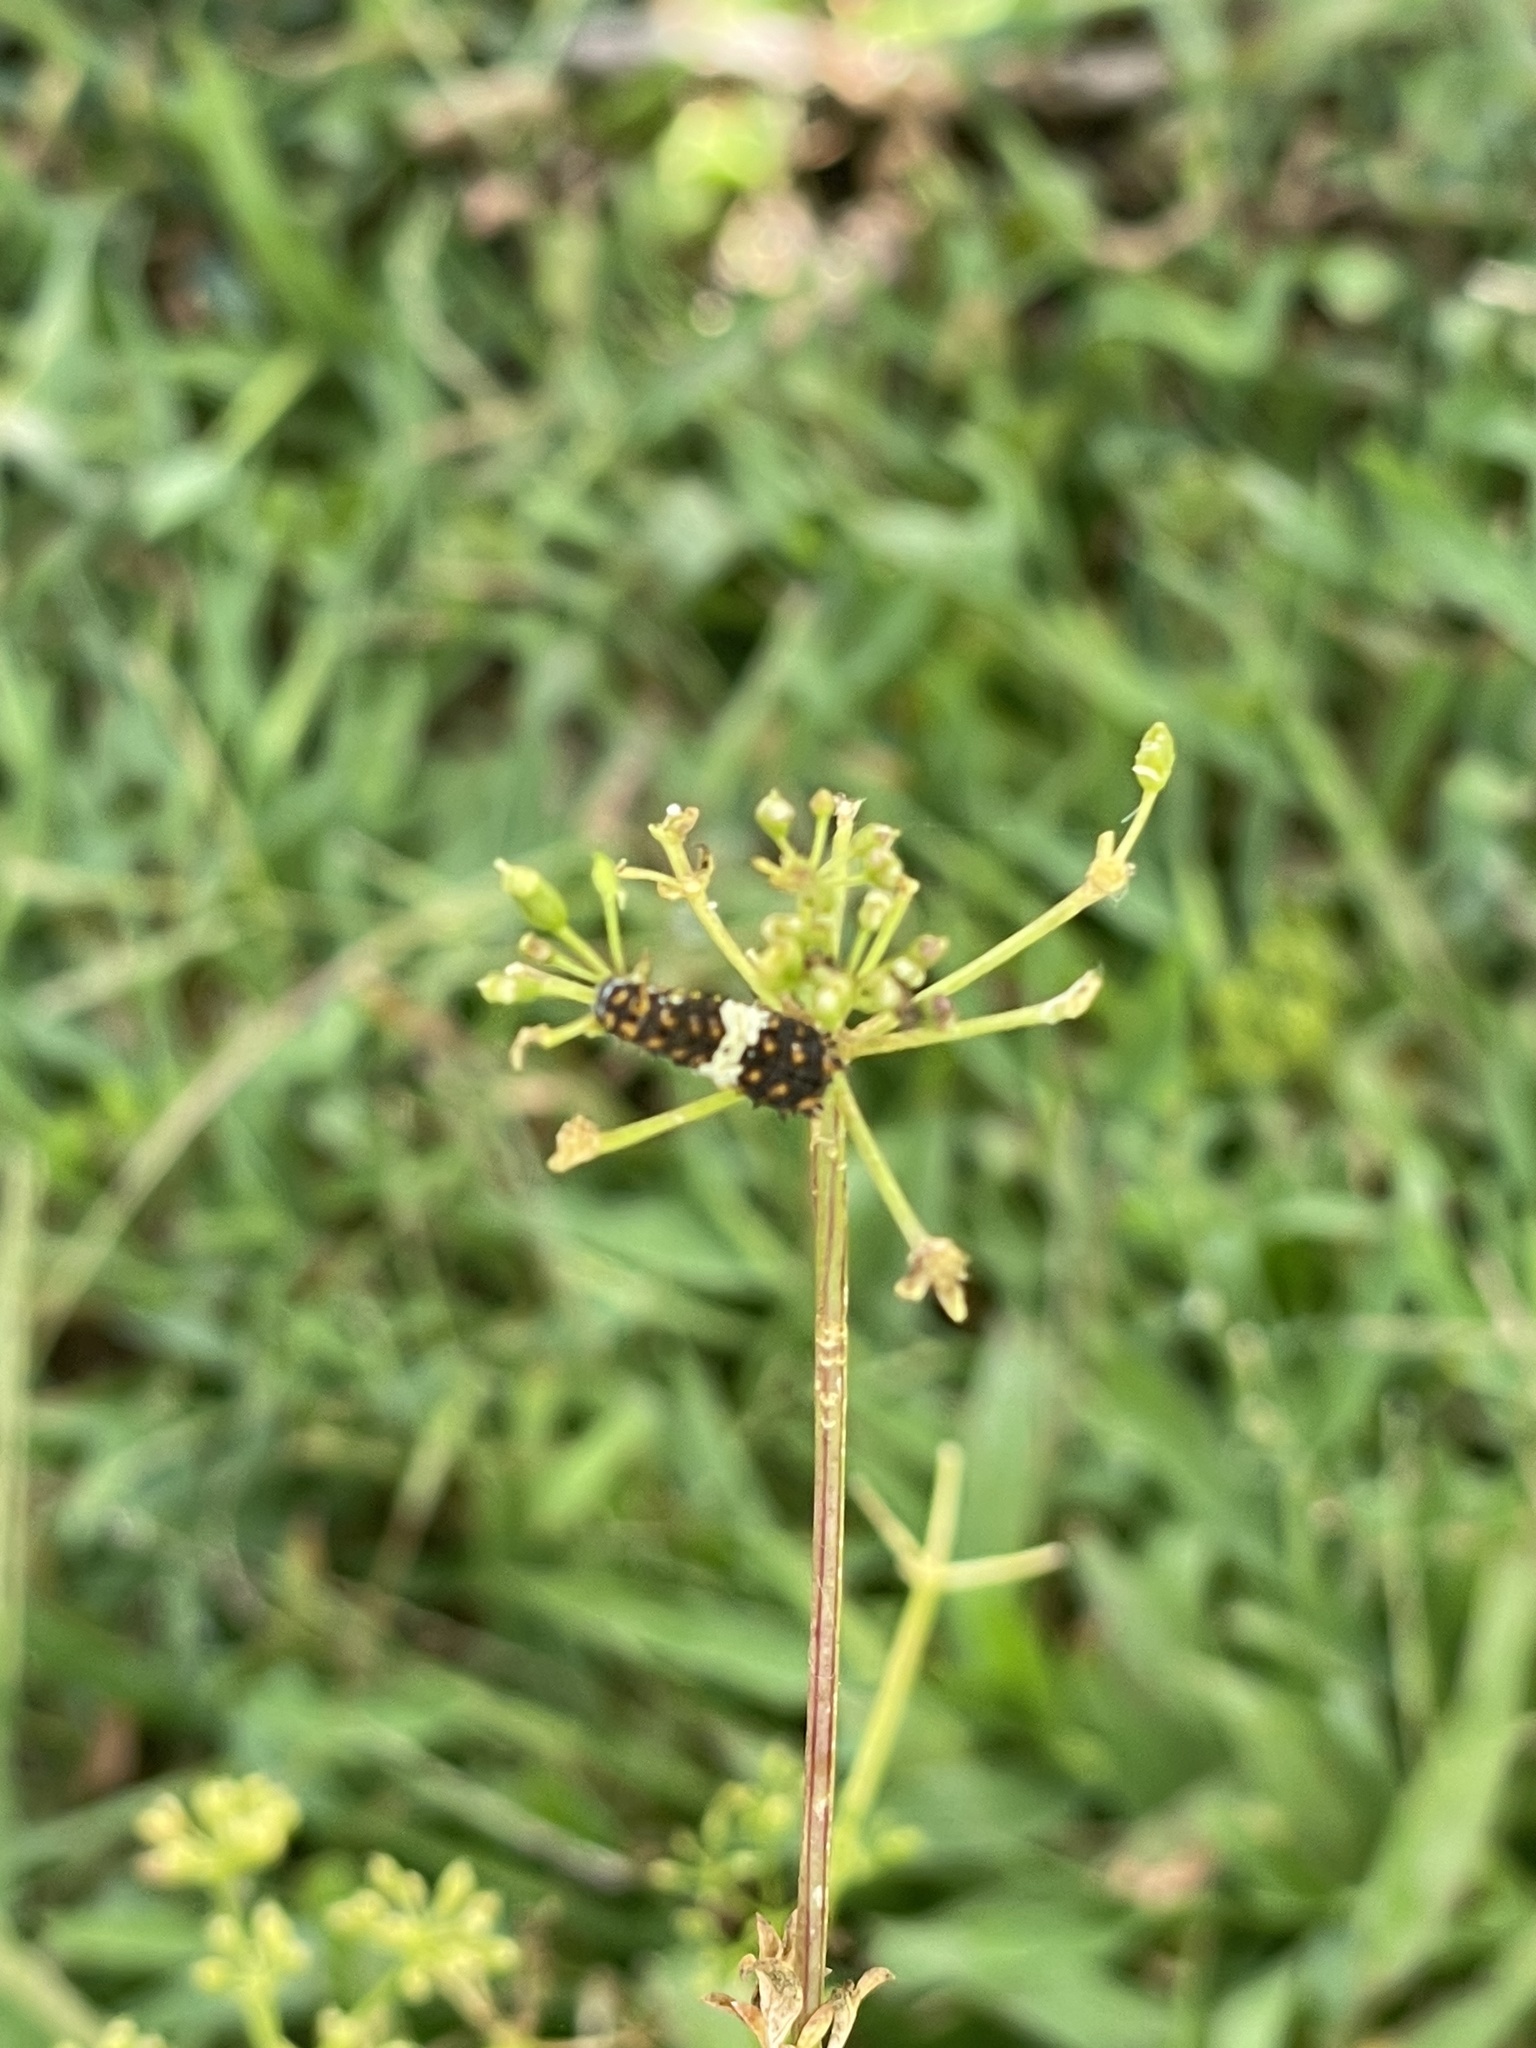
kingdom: Animalia
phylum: Arthropoda
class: Insecta
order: Lepidoptera
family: Papilionidae
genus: Papilio
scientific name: Papilio polyxenes
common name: Black swallowtail
